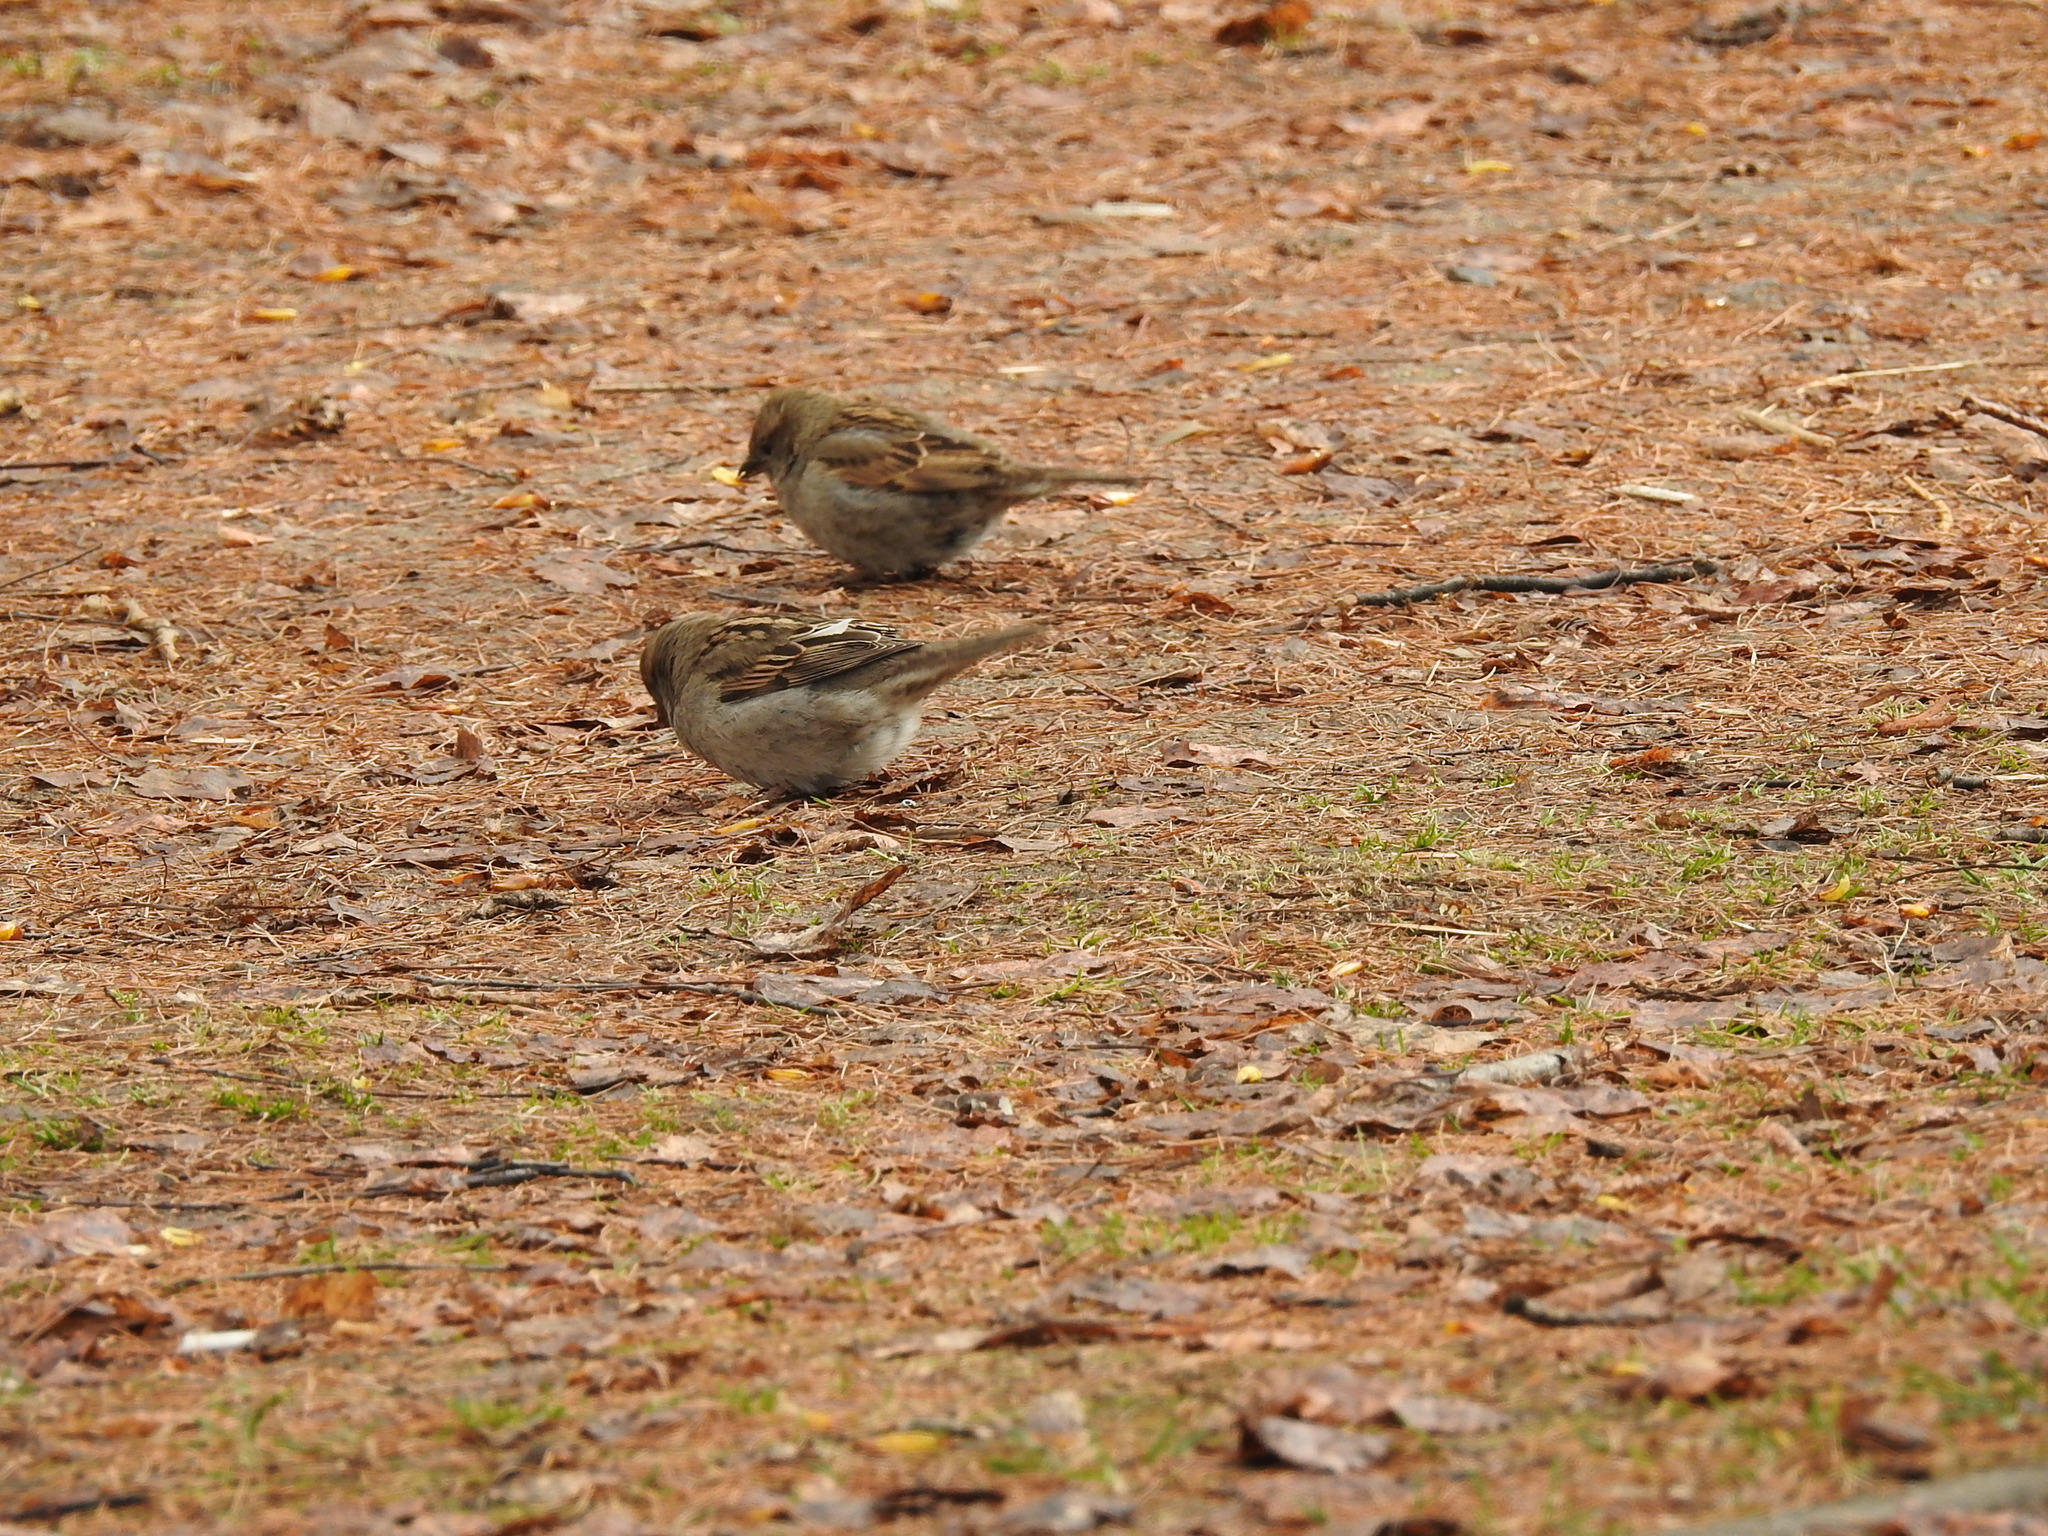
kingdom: Animalia
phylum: Chordata
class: Aves
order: Passeriformes
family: Passeridae
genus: Passer
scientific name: Passer domesticus
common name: House sparrow
